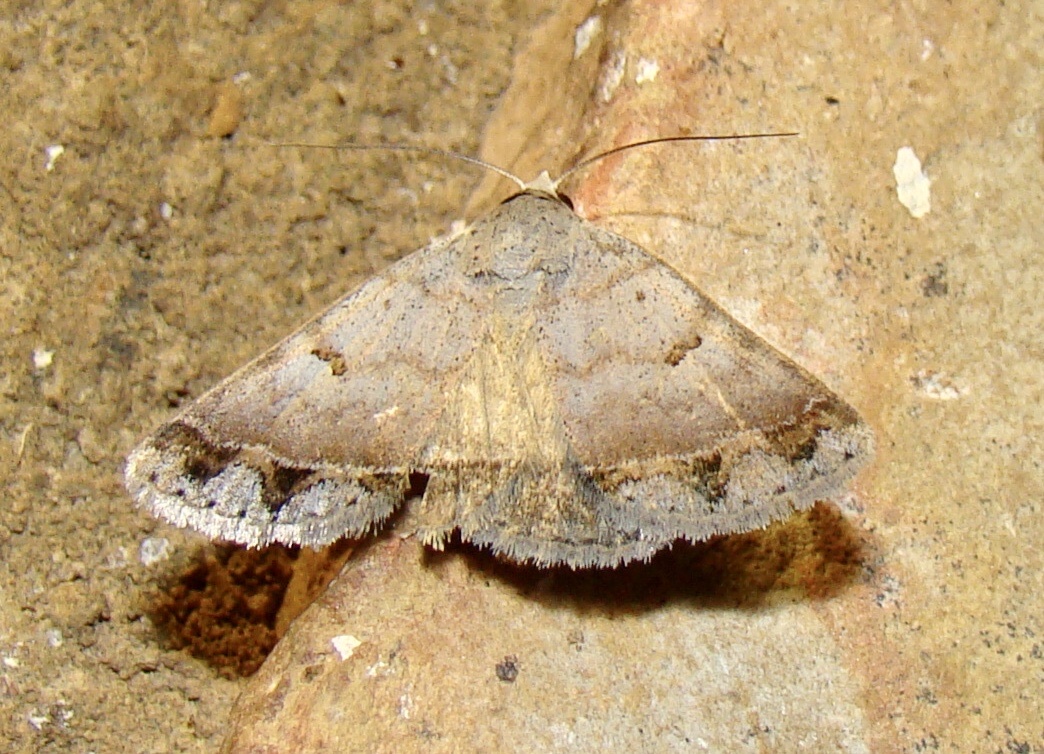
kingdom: Animalia
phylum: Arthropoda
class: Insecta
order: Lepidoptera
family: Erebidae
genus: Plecoptera
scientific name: Plecoptera annexa
